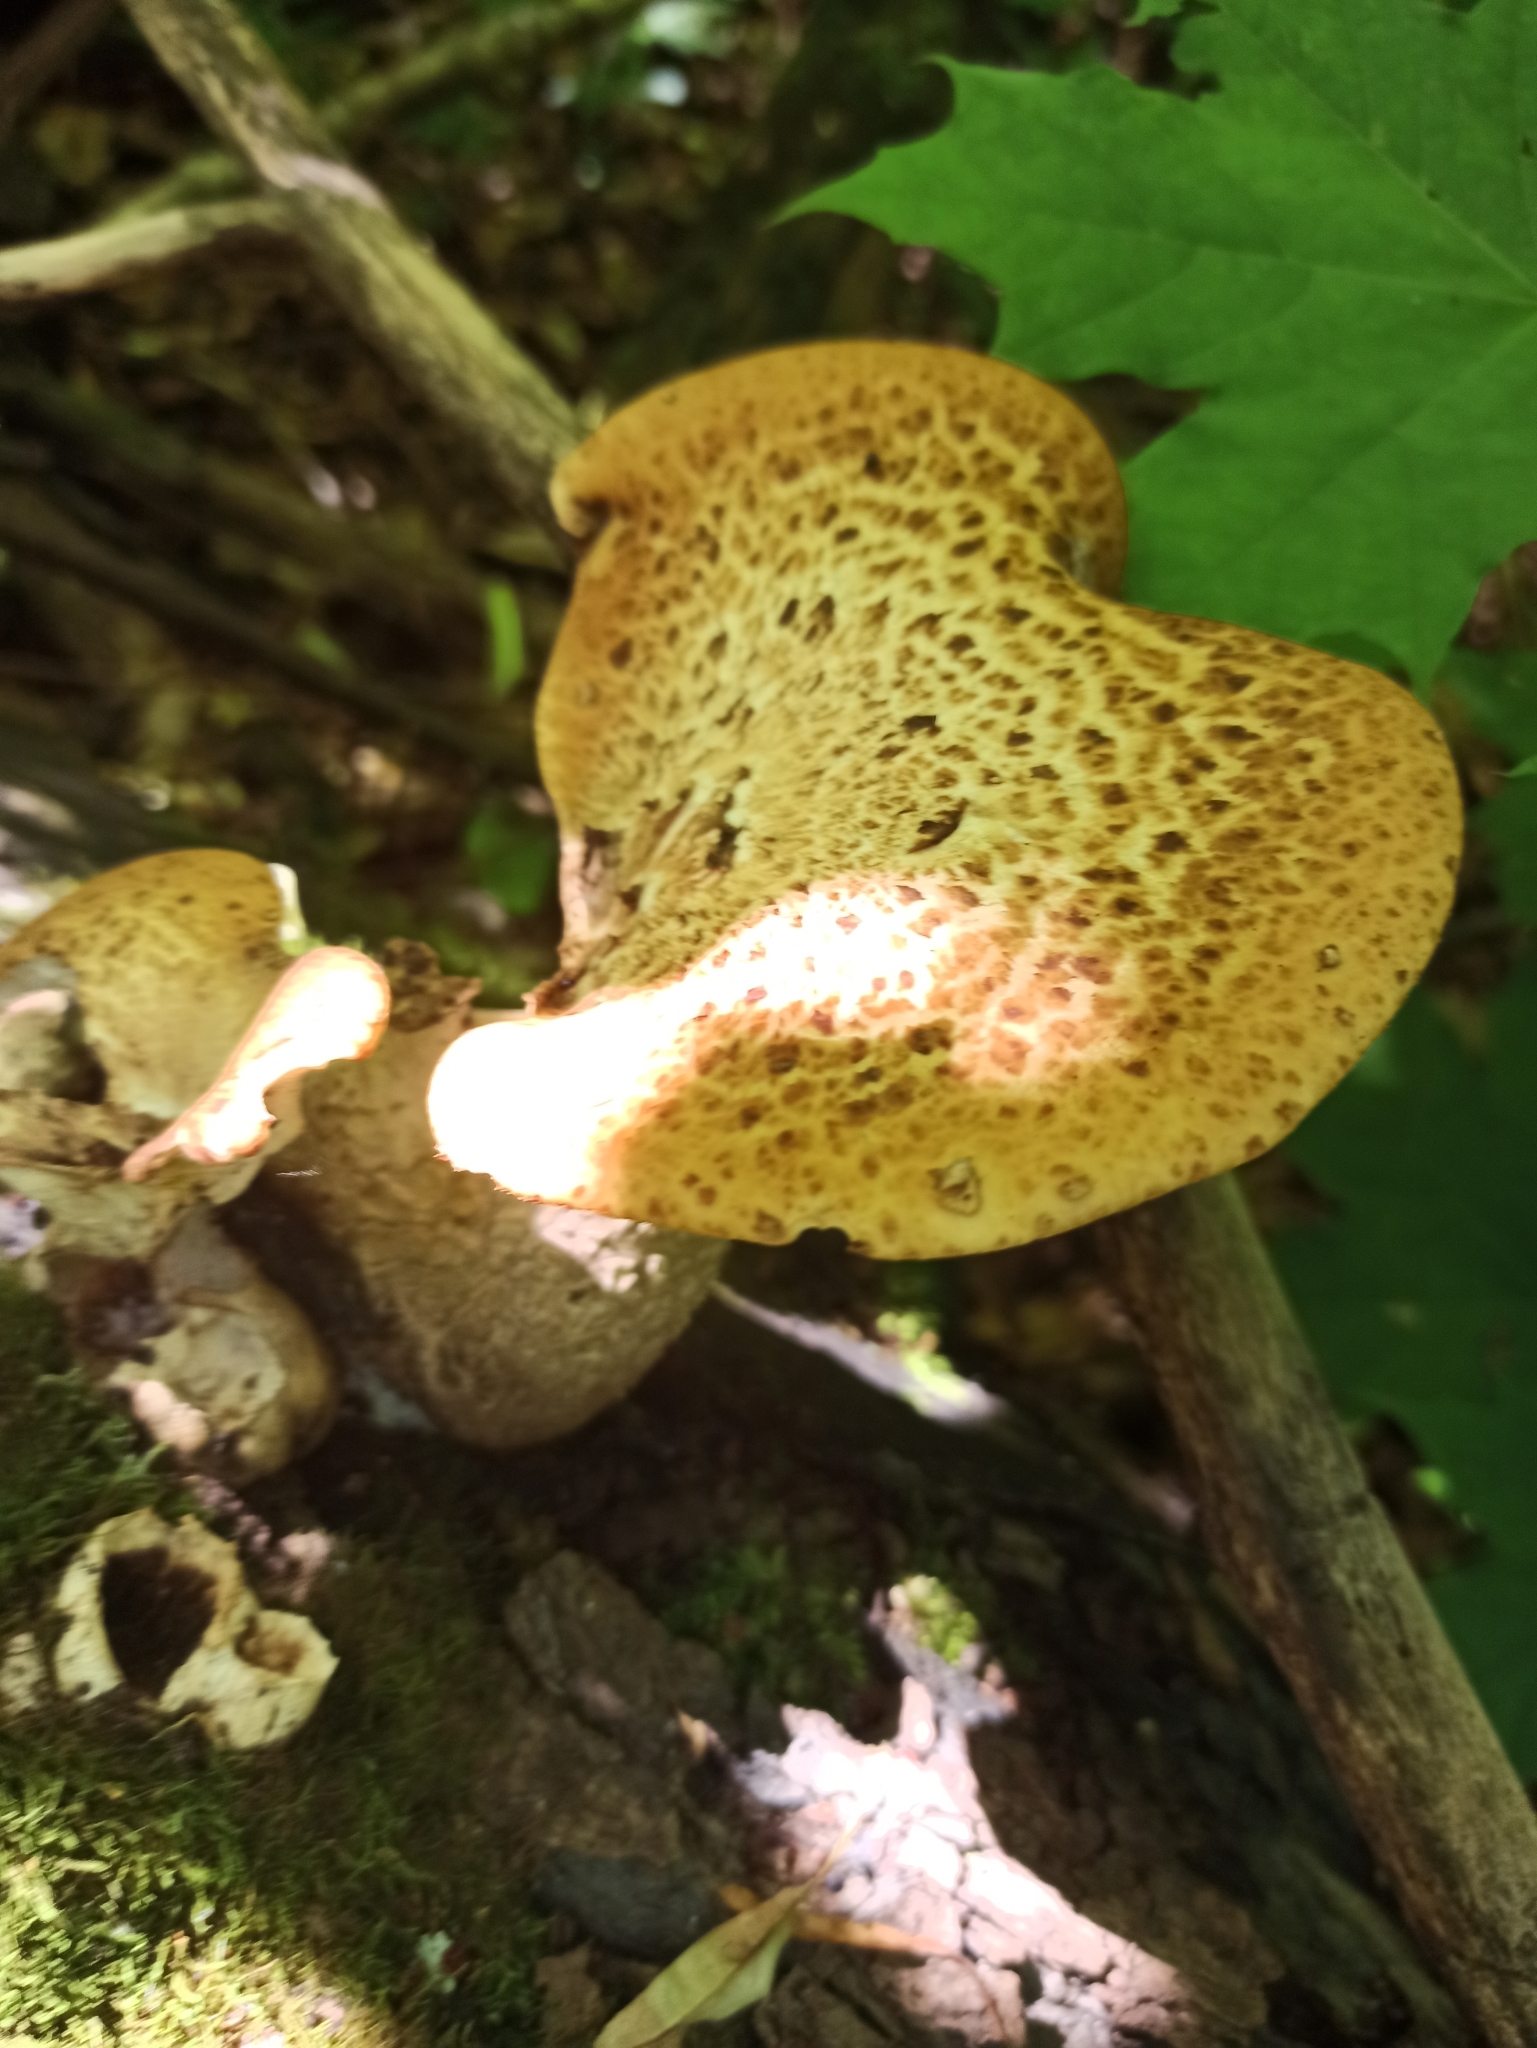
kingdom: Fungi
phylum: Basidiomycota
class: Agaricomycetes
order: Polyporales
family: Polyporaceae
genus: Cerioporus
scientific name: Cerioporus squamosus
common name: Dryad's saddle
